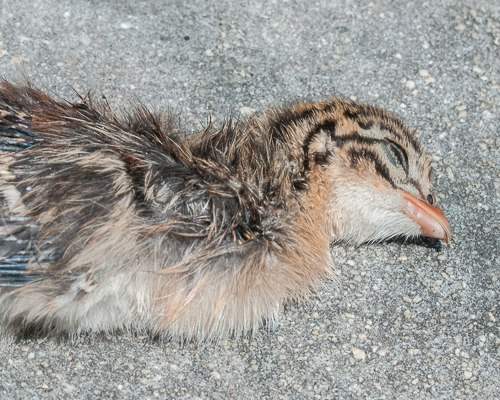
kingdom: Animalia
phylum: Chordata
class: Aves
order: Galliformes
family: Numididae
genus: Numida
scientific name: Numida meleagris
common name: Helmeted guineafowl
